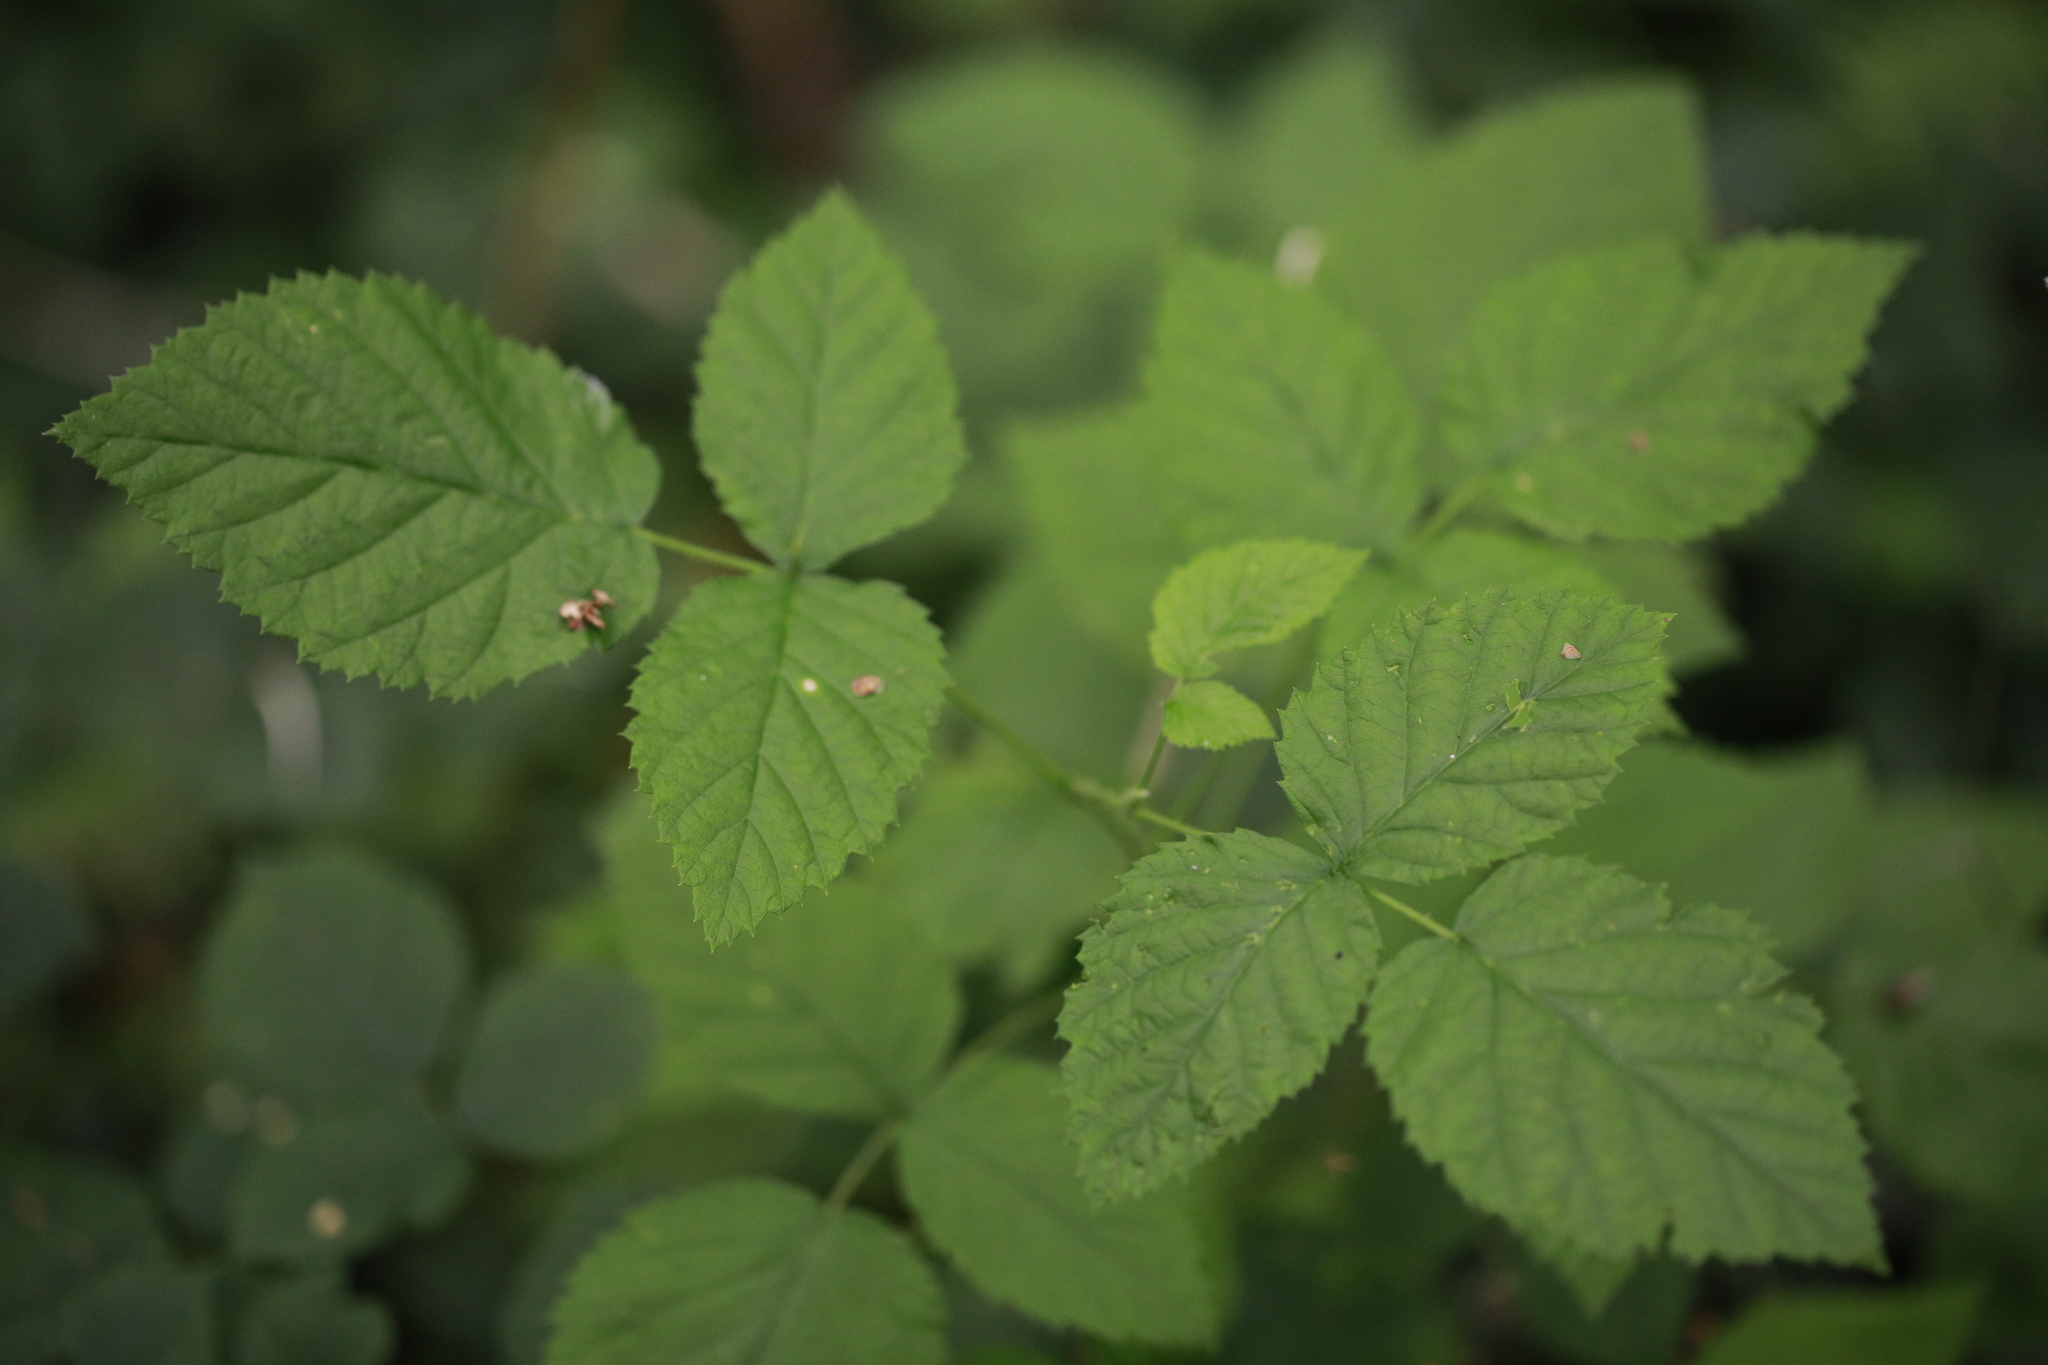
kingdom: Plantae
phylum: Tracheophyta
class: Magnoliopsida
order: Rosales
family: Rosaceae
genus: Rubus
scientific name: Rubus idaeus
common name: Raspberry
